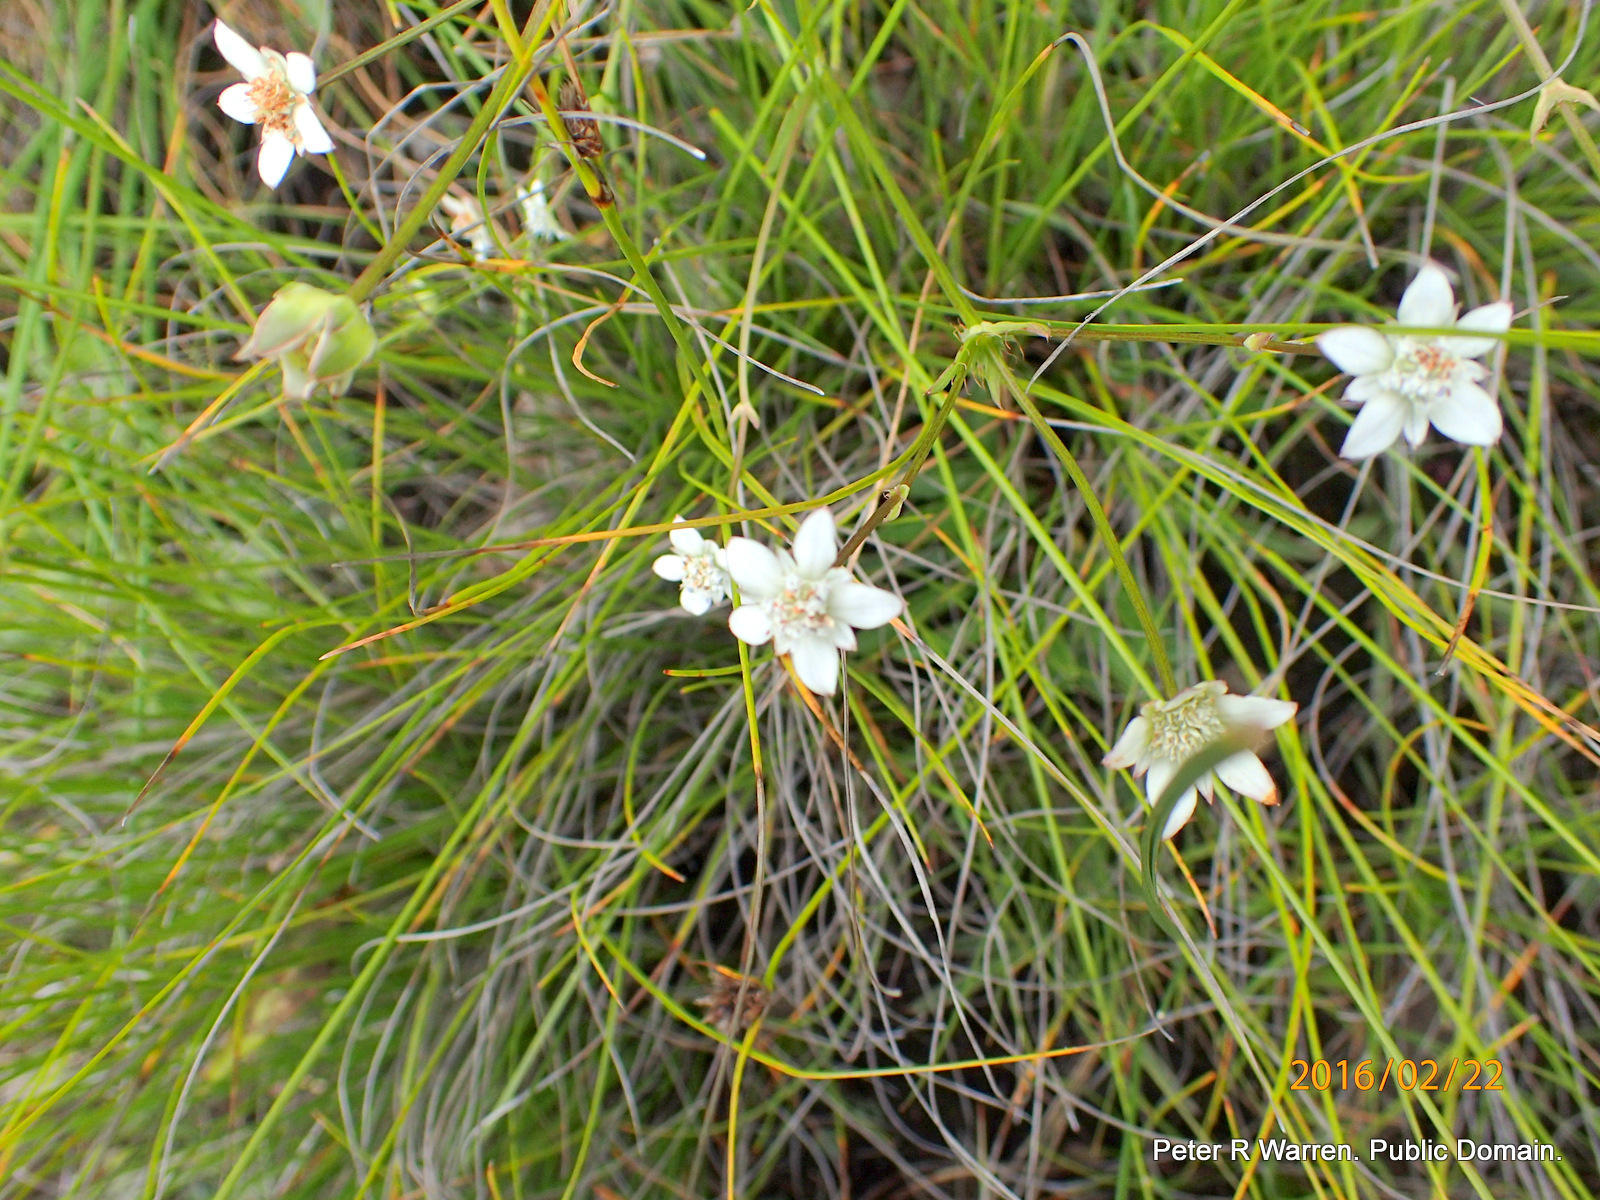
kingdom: Plantae
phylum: Tracheophyta
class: Magnoliopsida
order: Apiales
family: Apiaceae
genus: Alepidea
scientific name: Alepidea serrata
